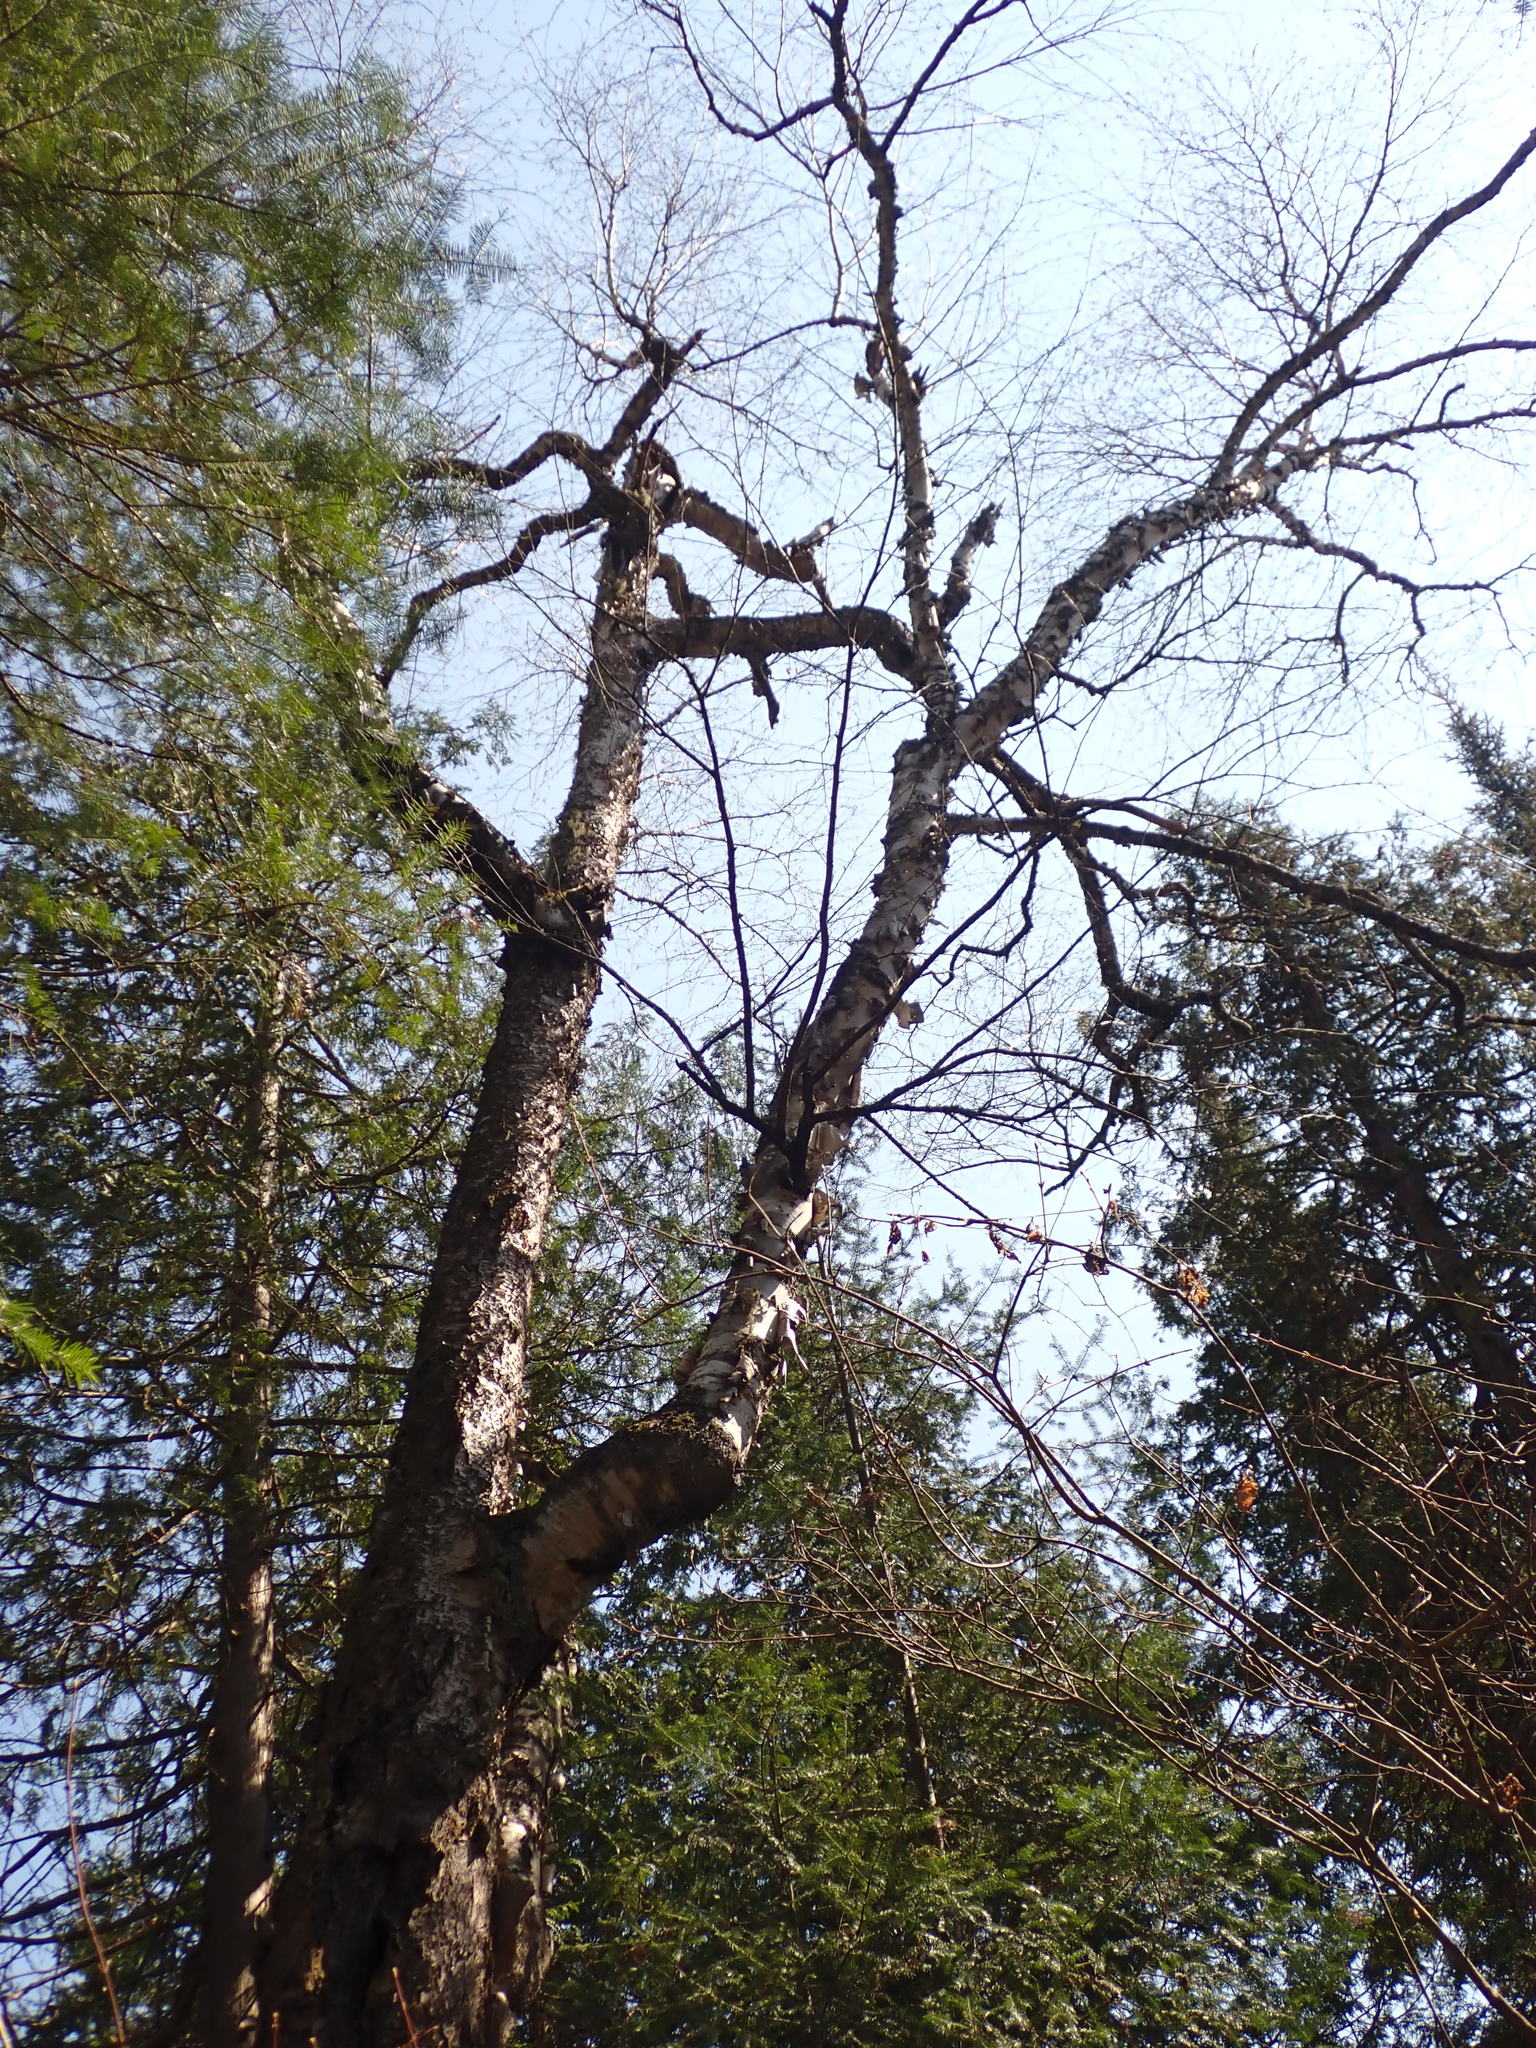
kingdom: Plantae
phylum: Tracheophyta
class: Magnoliopsida
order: Fagales
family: Betulaceae
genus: Betula
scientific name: Betula alleghaniensis
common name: Yellow birch
